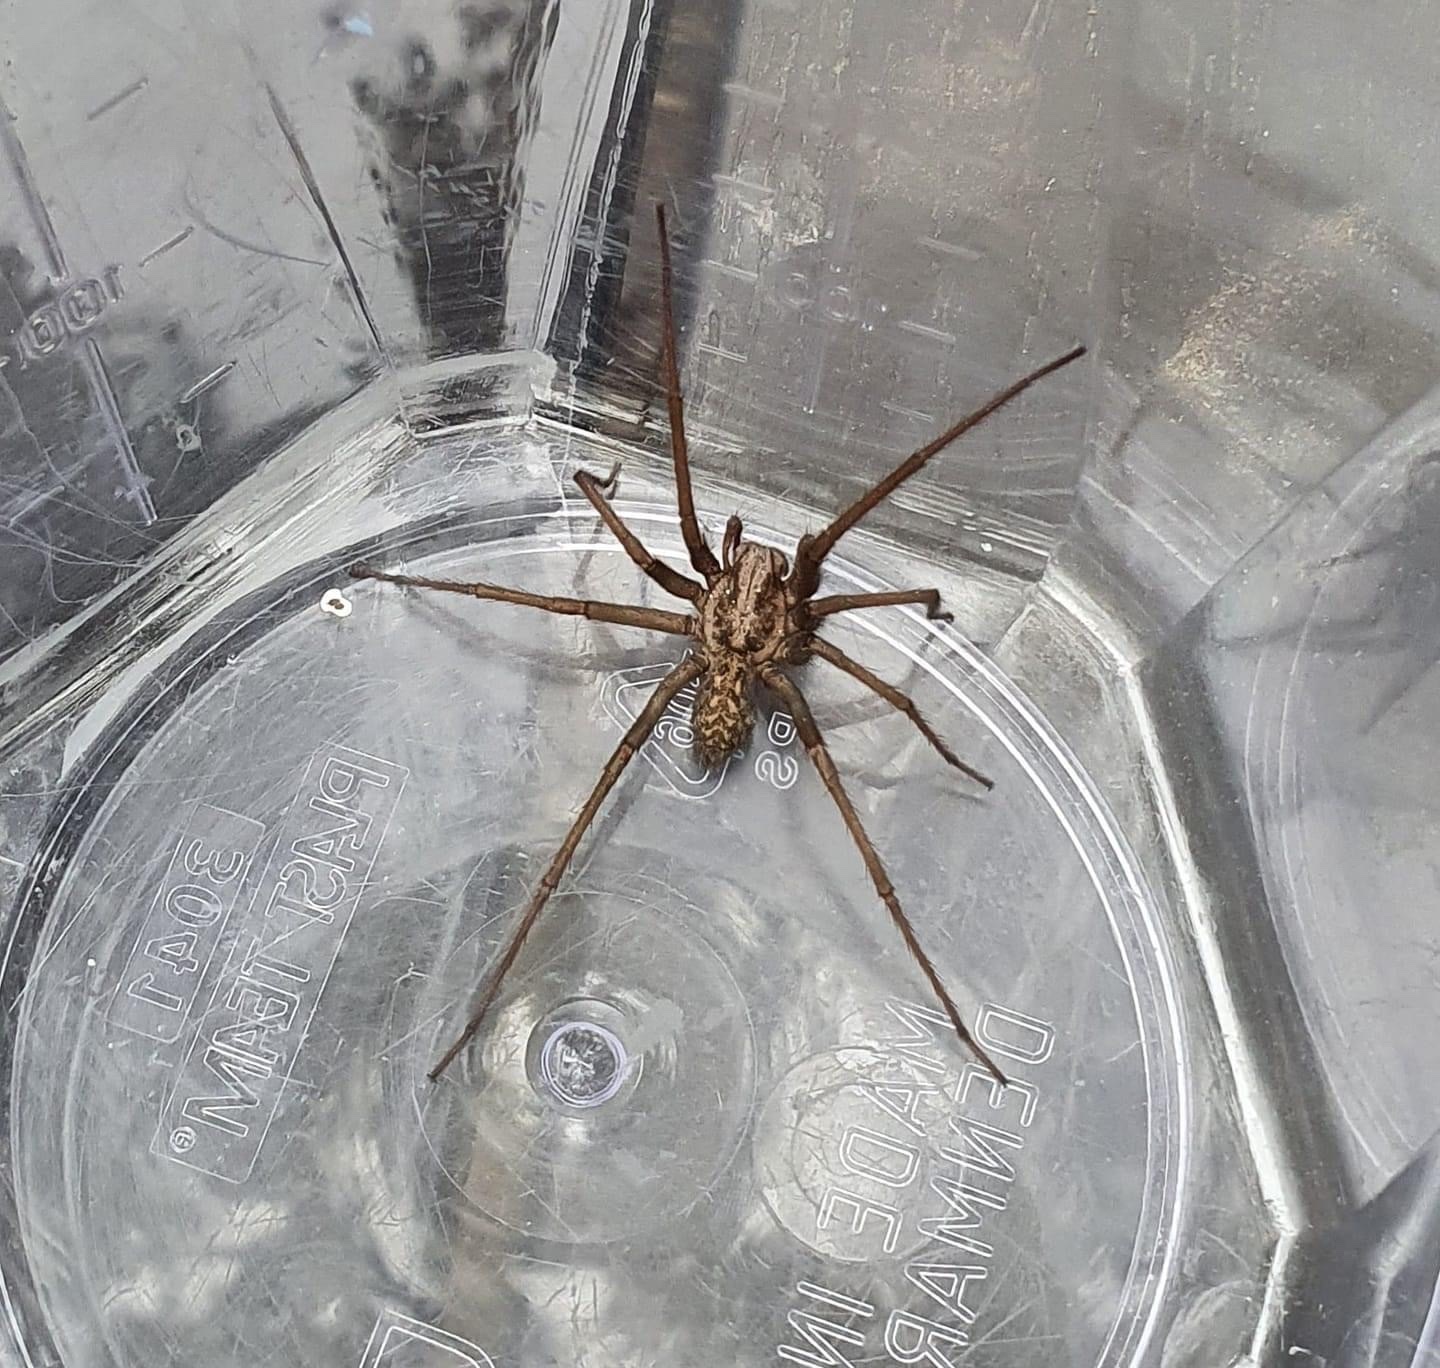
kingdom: Animalia
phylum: Arthropoda
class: Arachnida
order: Araneae
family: Agelenidae
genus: Eratigena
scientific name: Eratigena atrica
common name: Giant house spider
